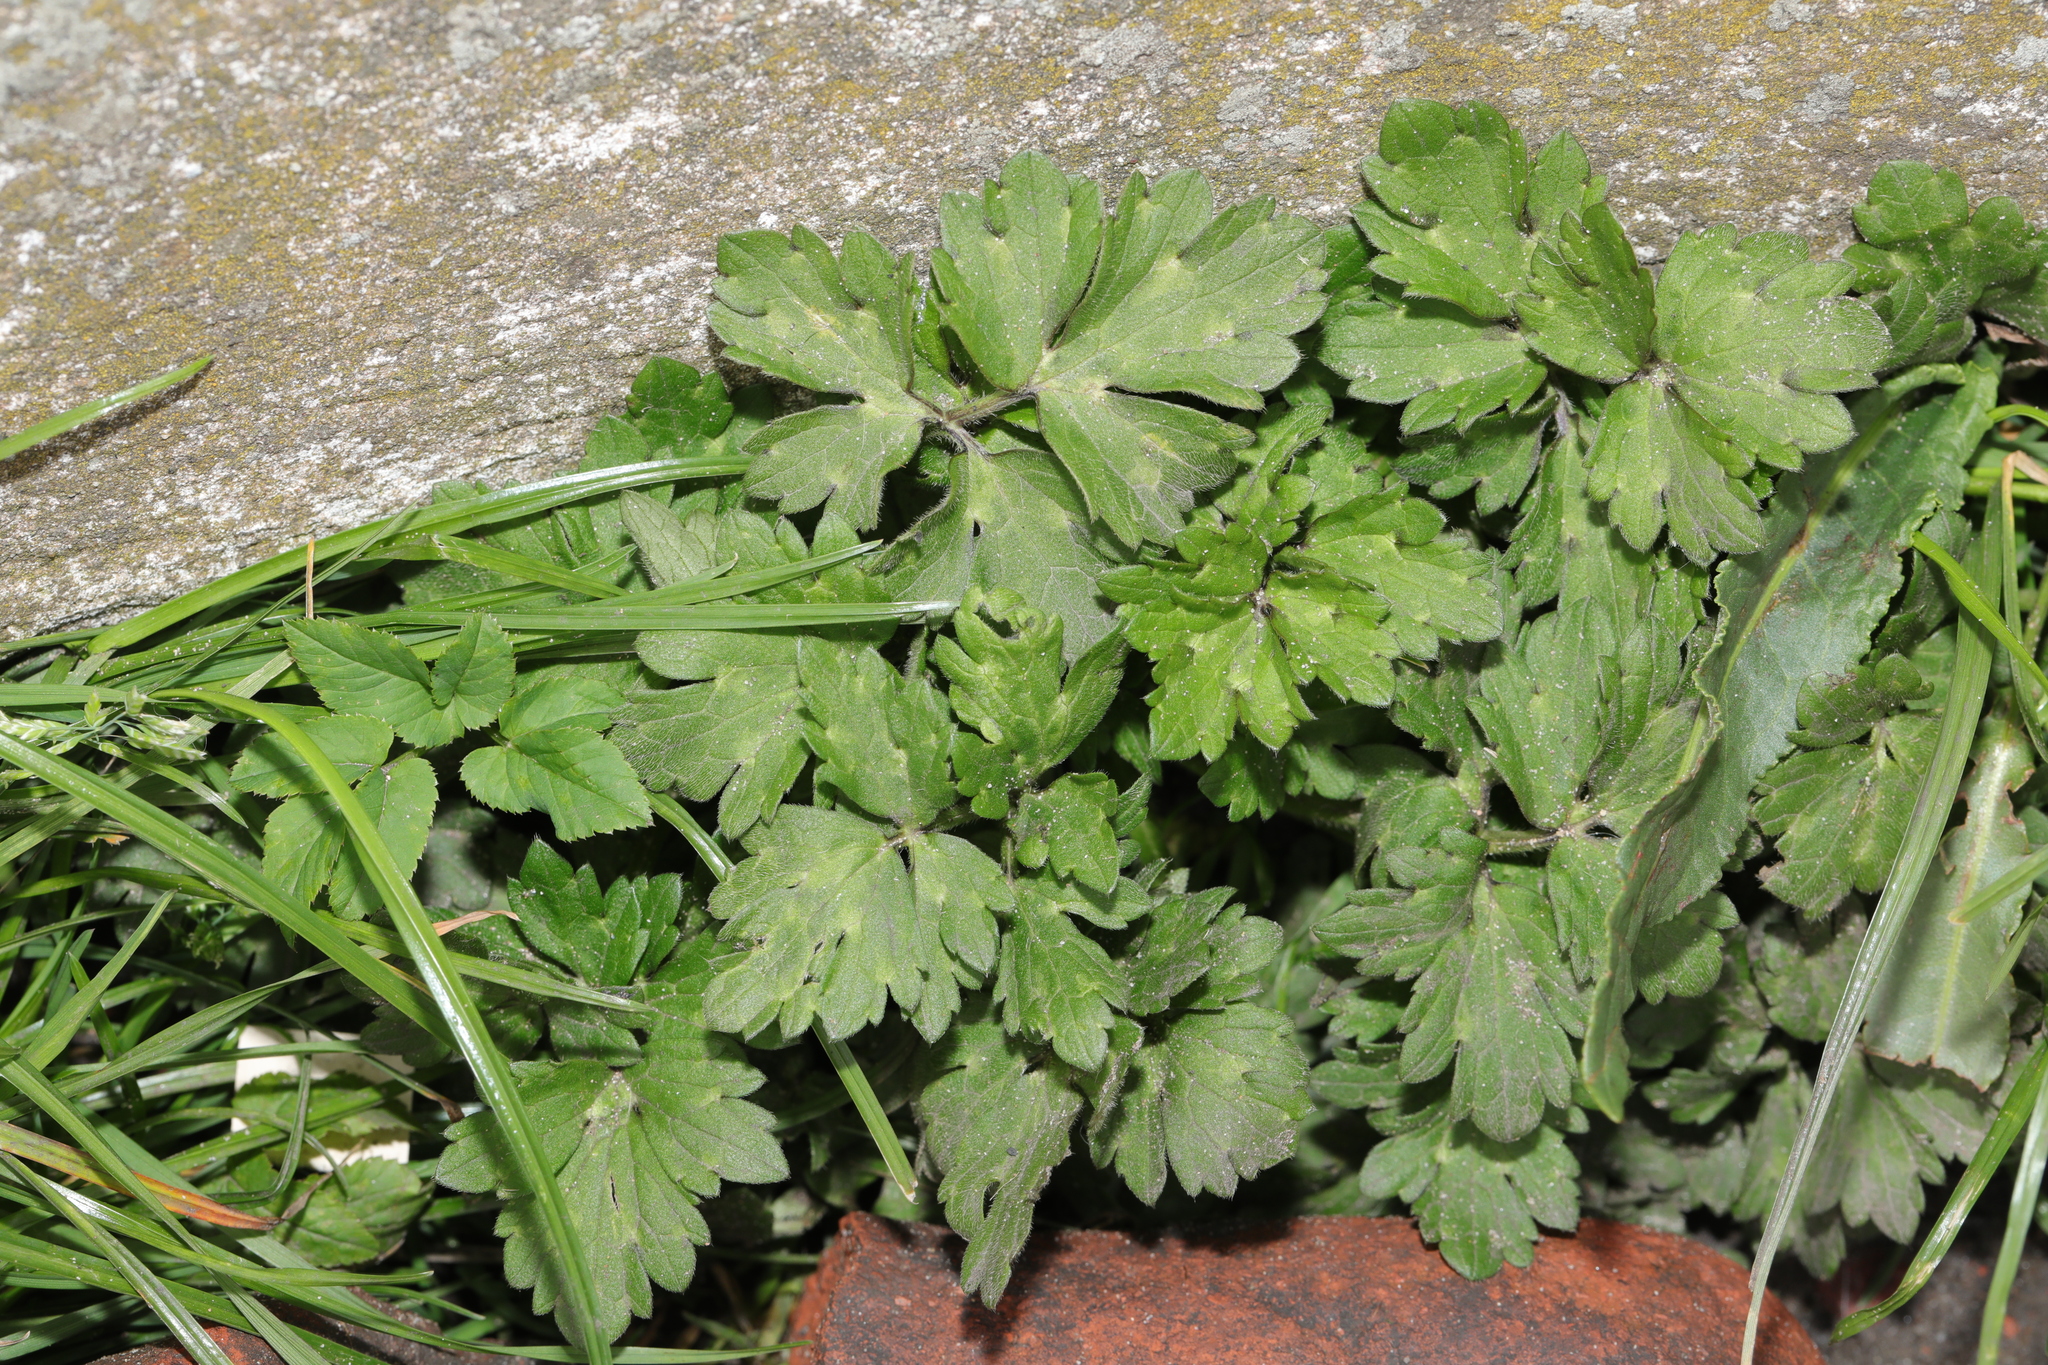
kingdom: Plantae
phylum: Tracheophyta
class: Magnoliopsida
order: Ranunculales
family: Ranunculaceae
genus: Ranunculus
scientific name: Ranunculus repens
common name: Creeping buttercup
